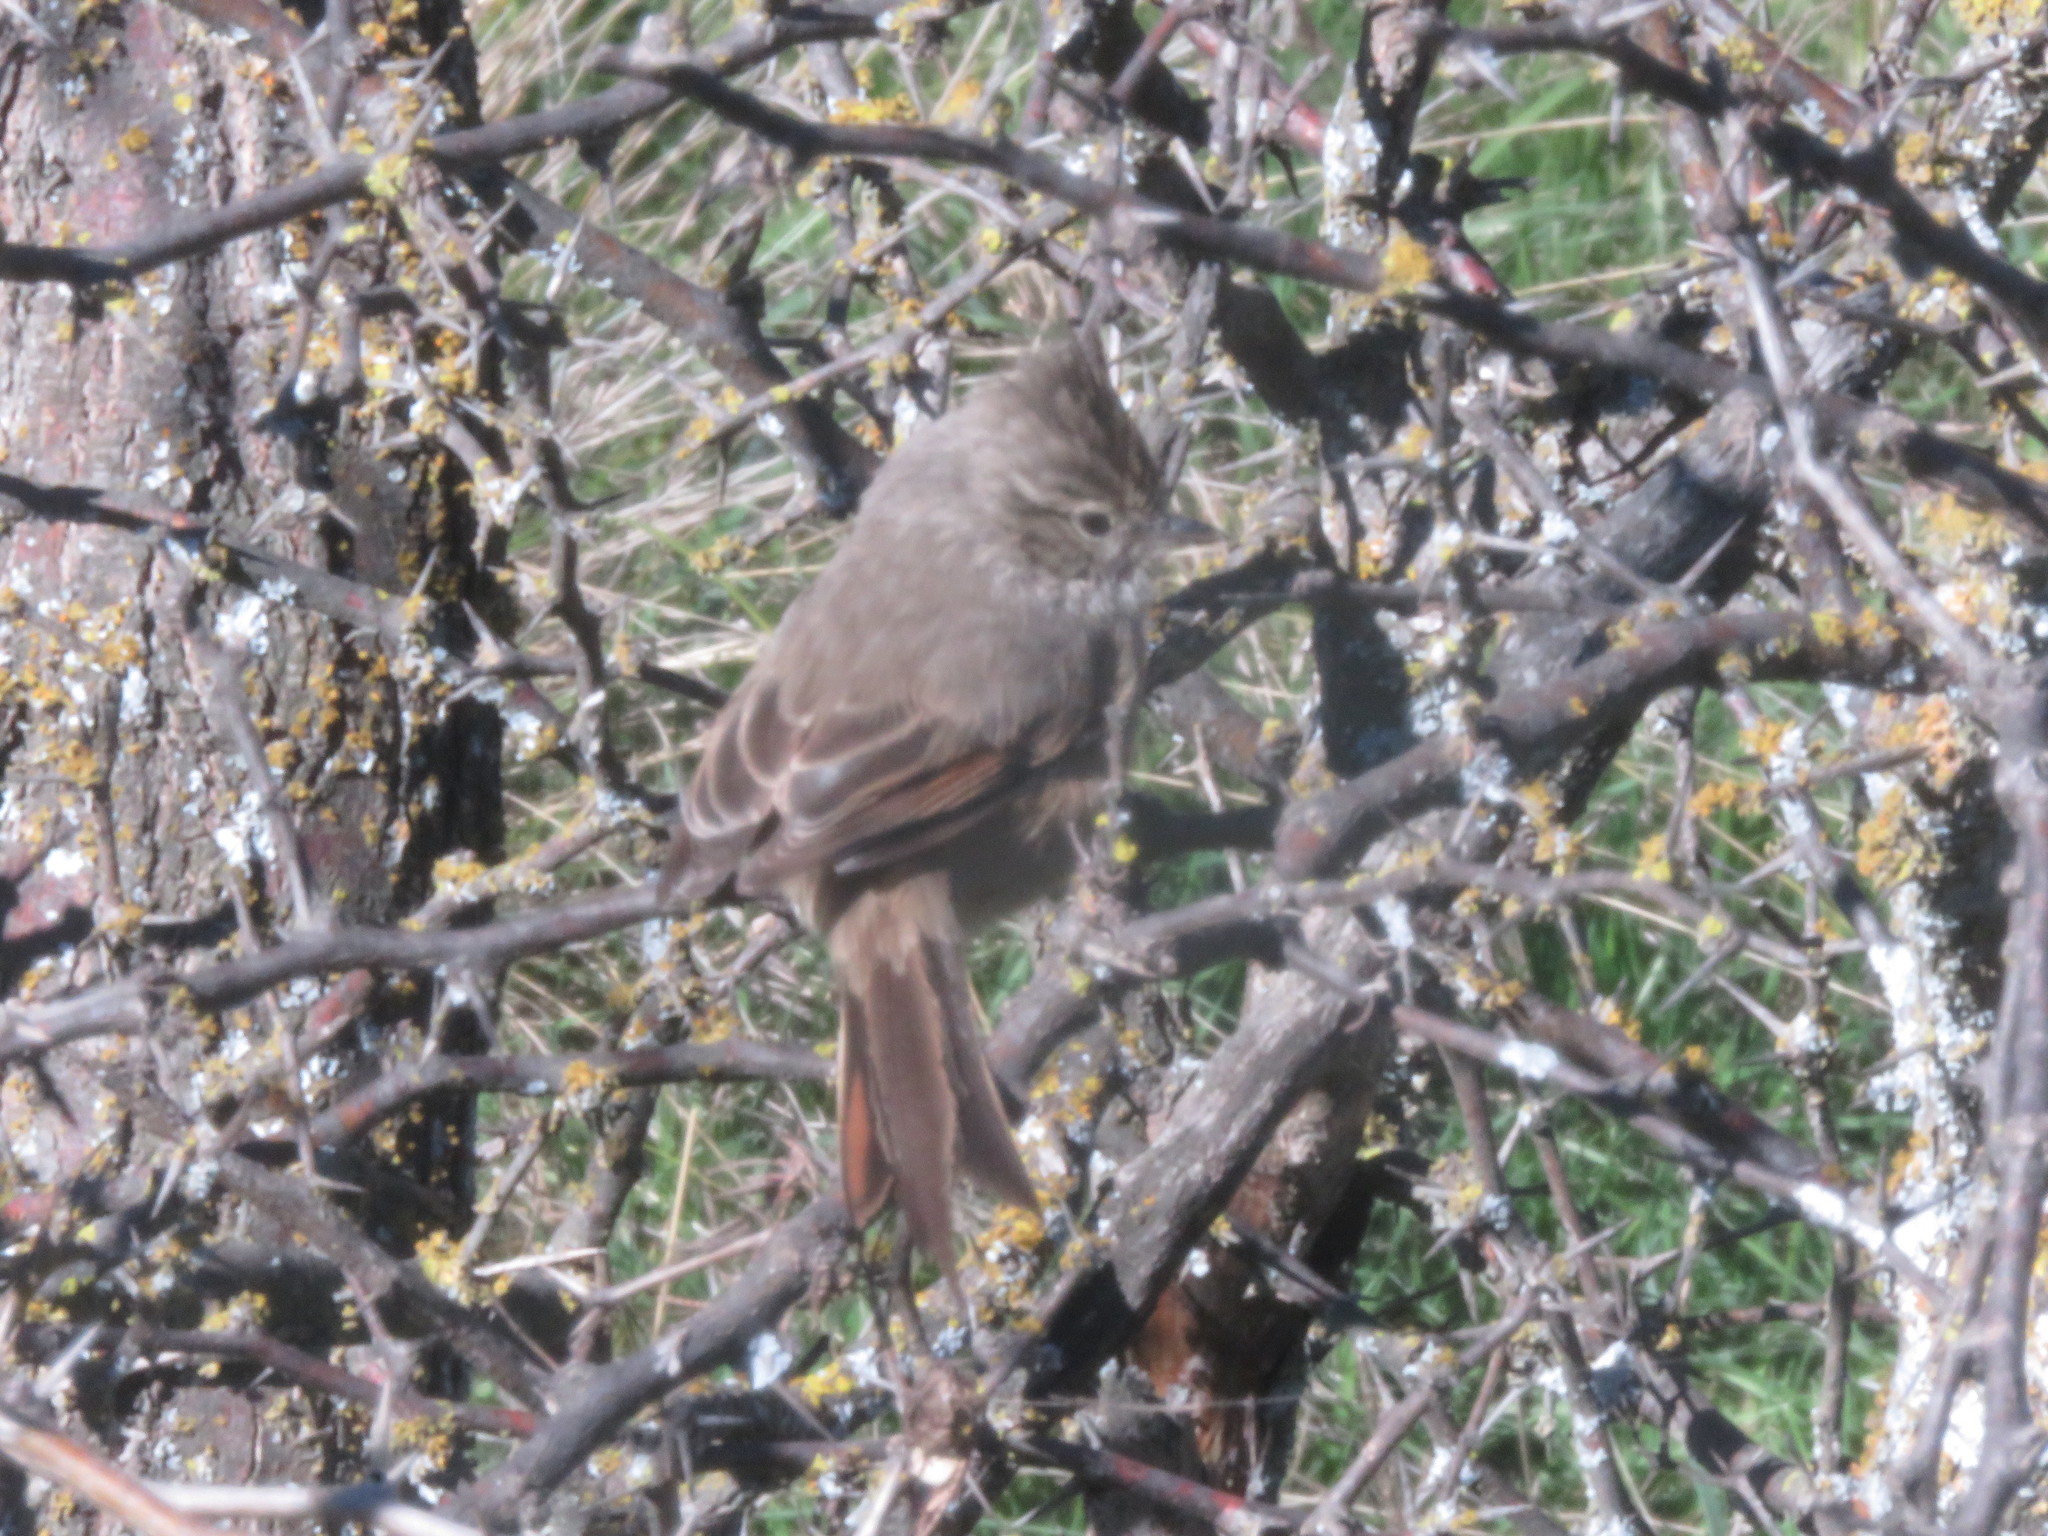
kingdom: Animalia
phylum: Chordata
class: Aves
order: Passeriformes
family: Furnariidae
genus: Leptasthenura
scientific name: Leptasthenura platensis
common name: Tufted tit-spinetail
